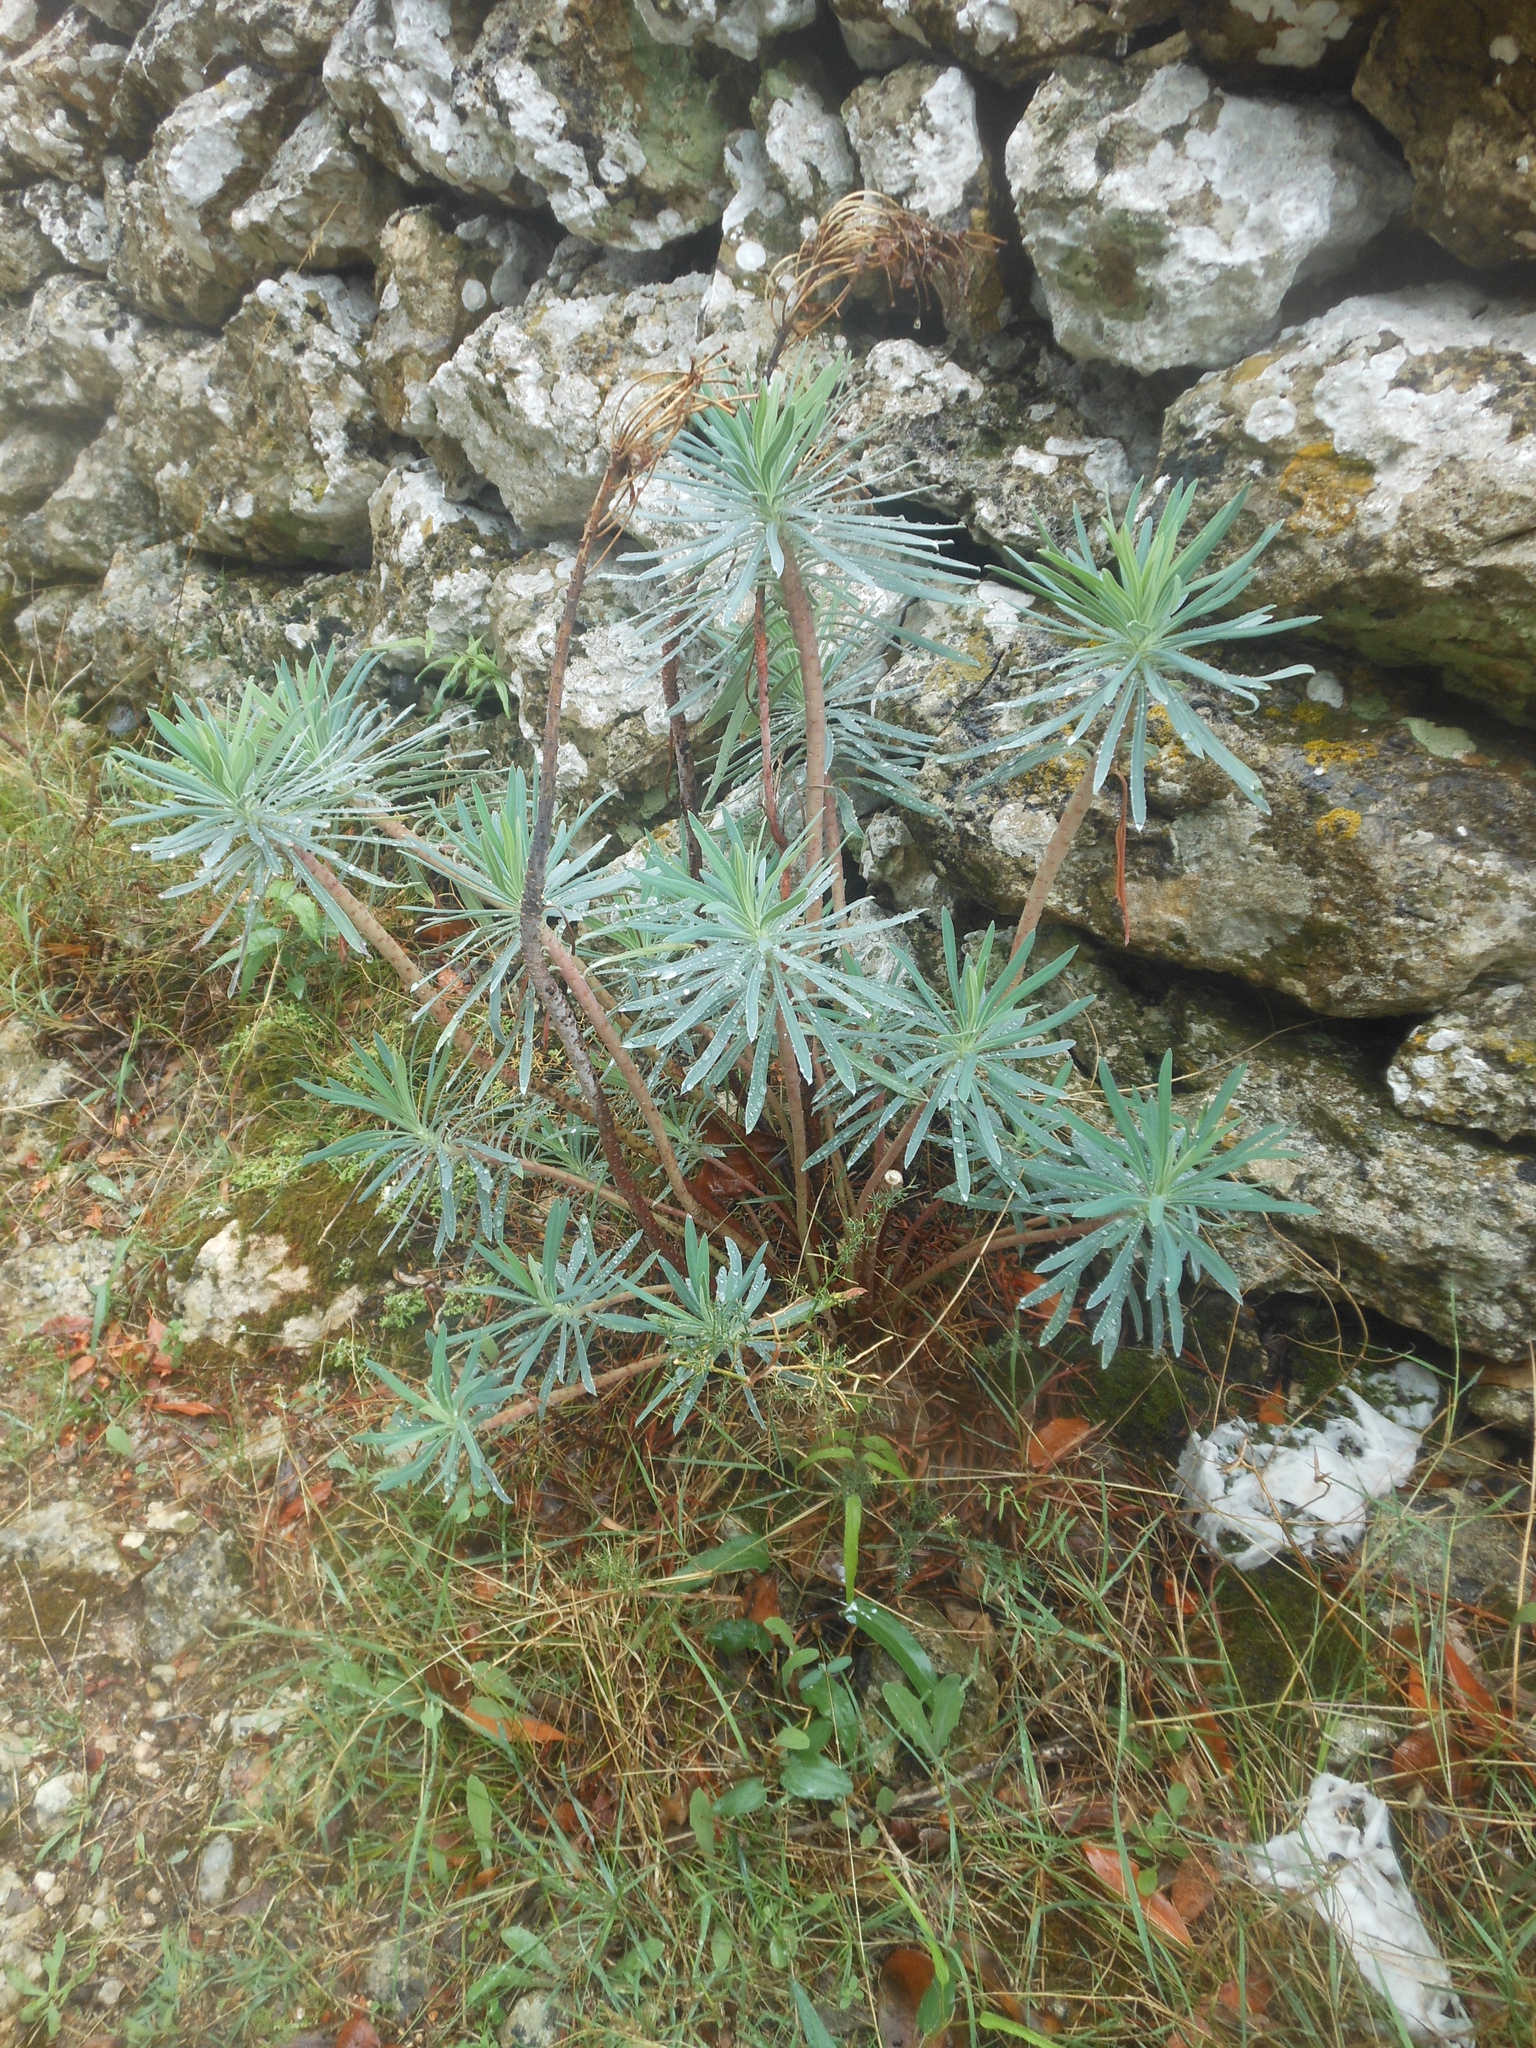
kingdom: Plantae
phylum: Tracheophyta
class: Magnoliopsida
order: Malpighiales
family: Euphorbiaceae
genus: Euphorbia
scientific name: Euphorbia characias
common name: Mediterranean spurge
